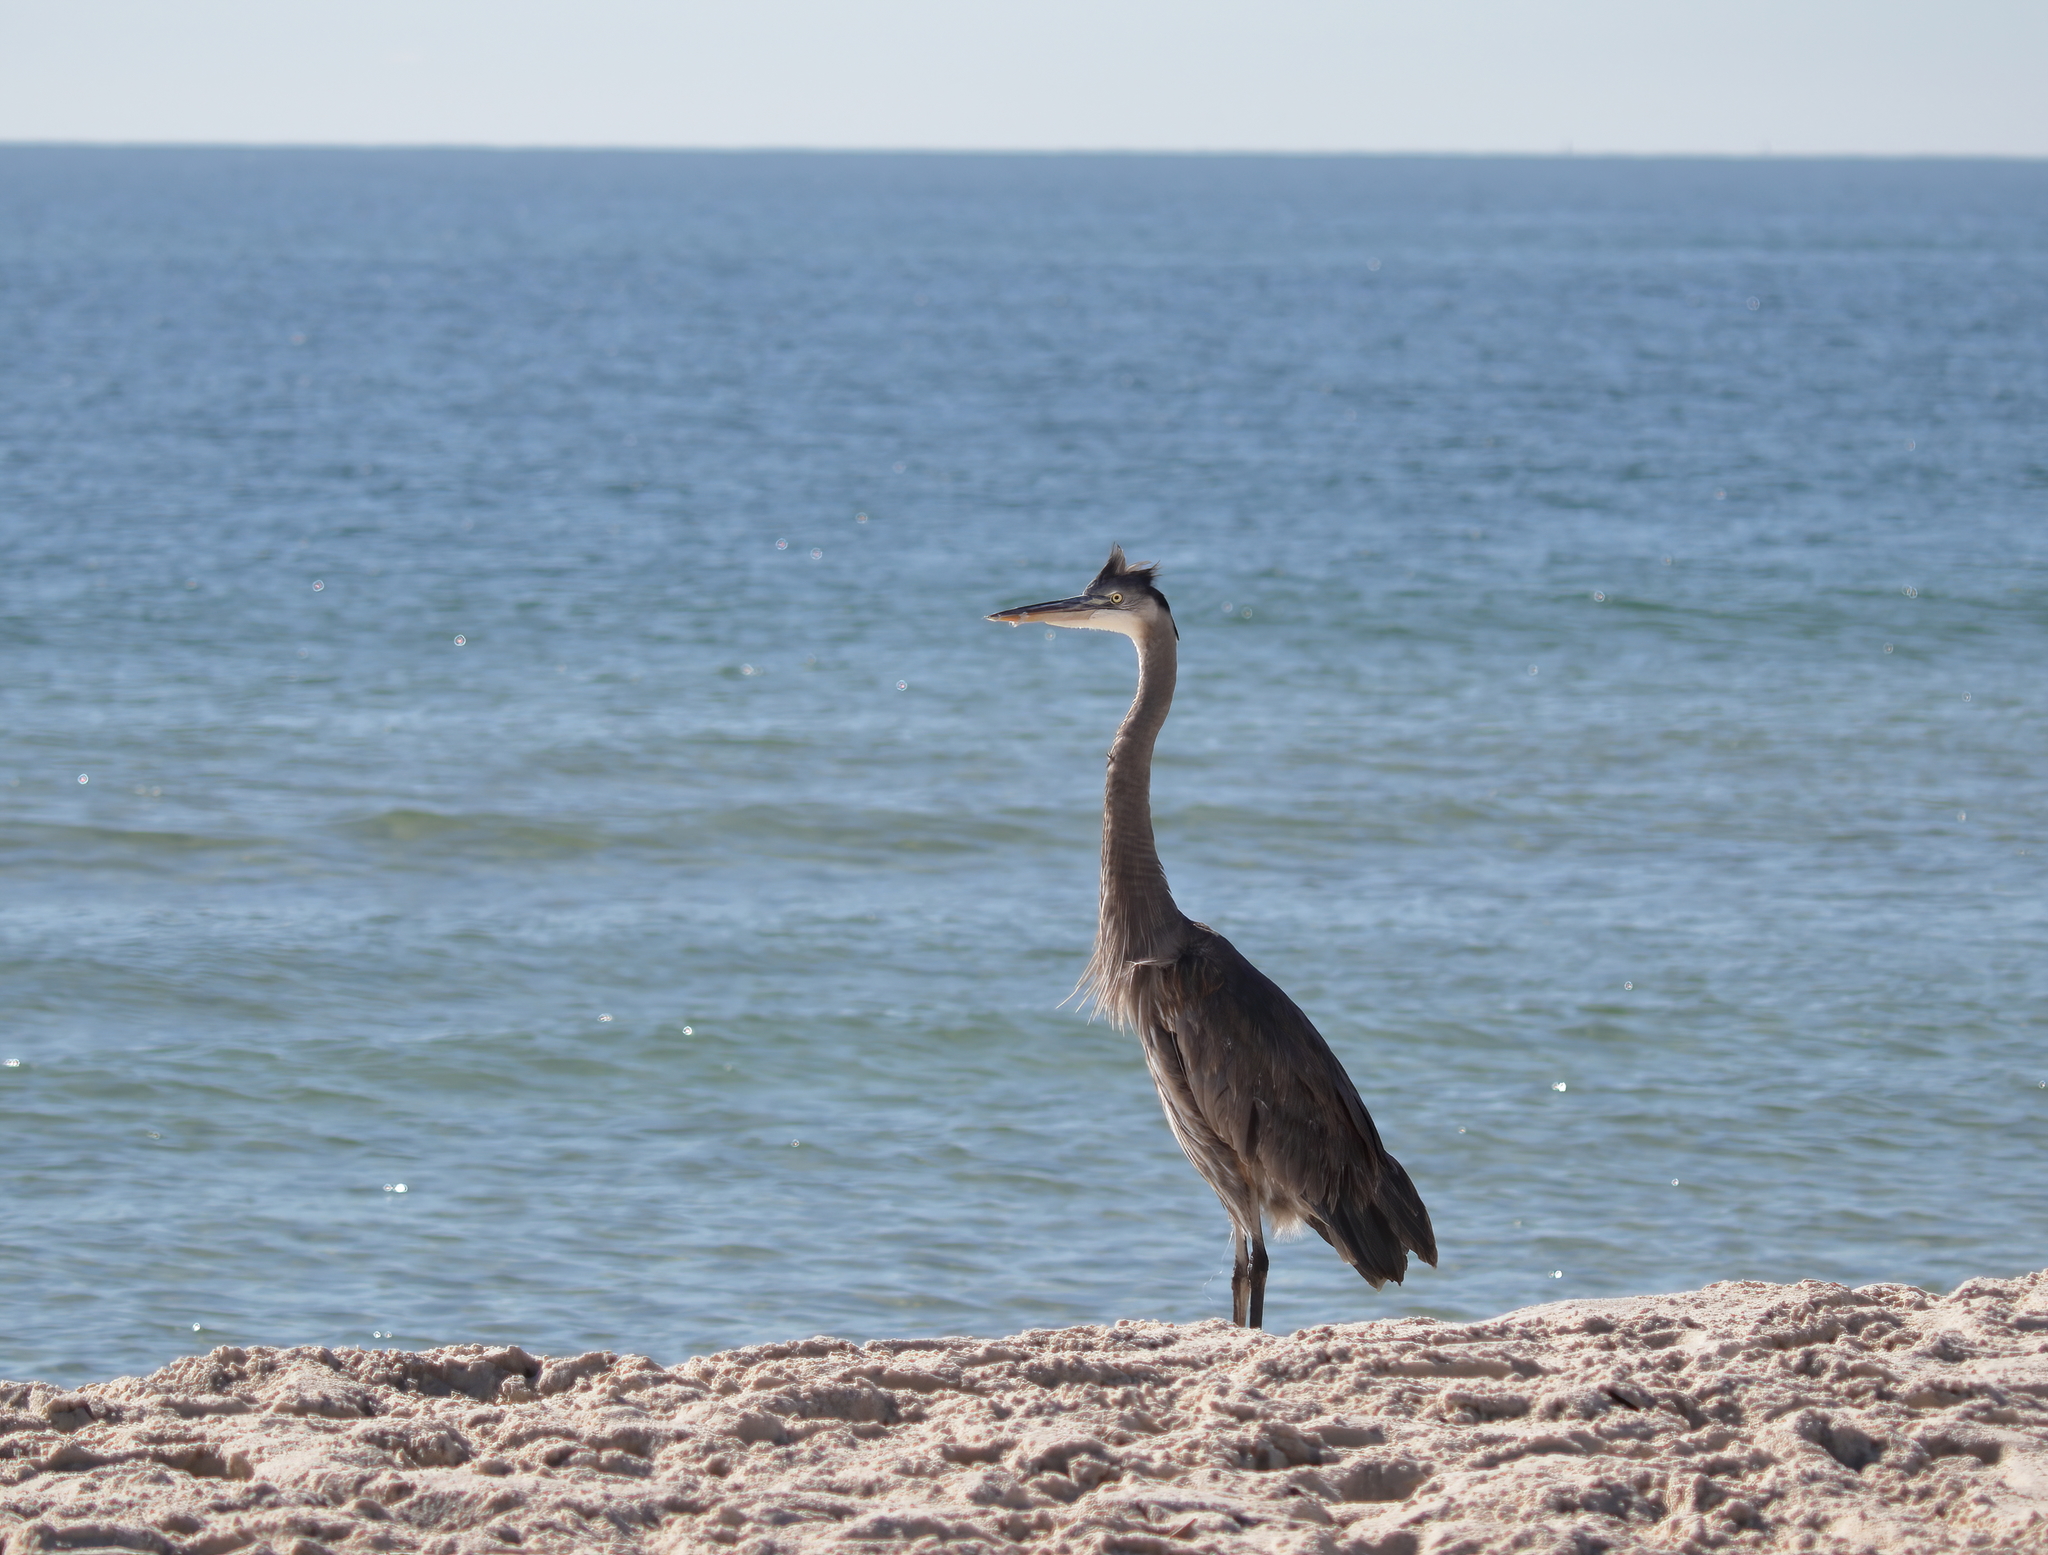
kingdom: Animalia
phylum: Chordata
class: Aves
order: Pelecaniformes
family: Ardeidae
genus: Ardea
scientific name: Ardea herodias
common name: Great blue heron
